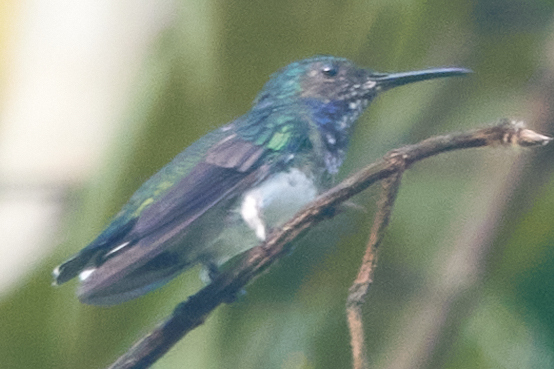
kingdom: Animalia
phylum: Chordata
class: Aves
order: Apodiformes
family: Trochilidae
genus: Florisuga
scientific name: Florisuga mellivora
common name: White-necked jacobin
